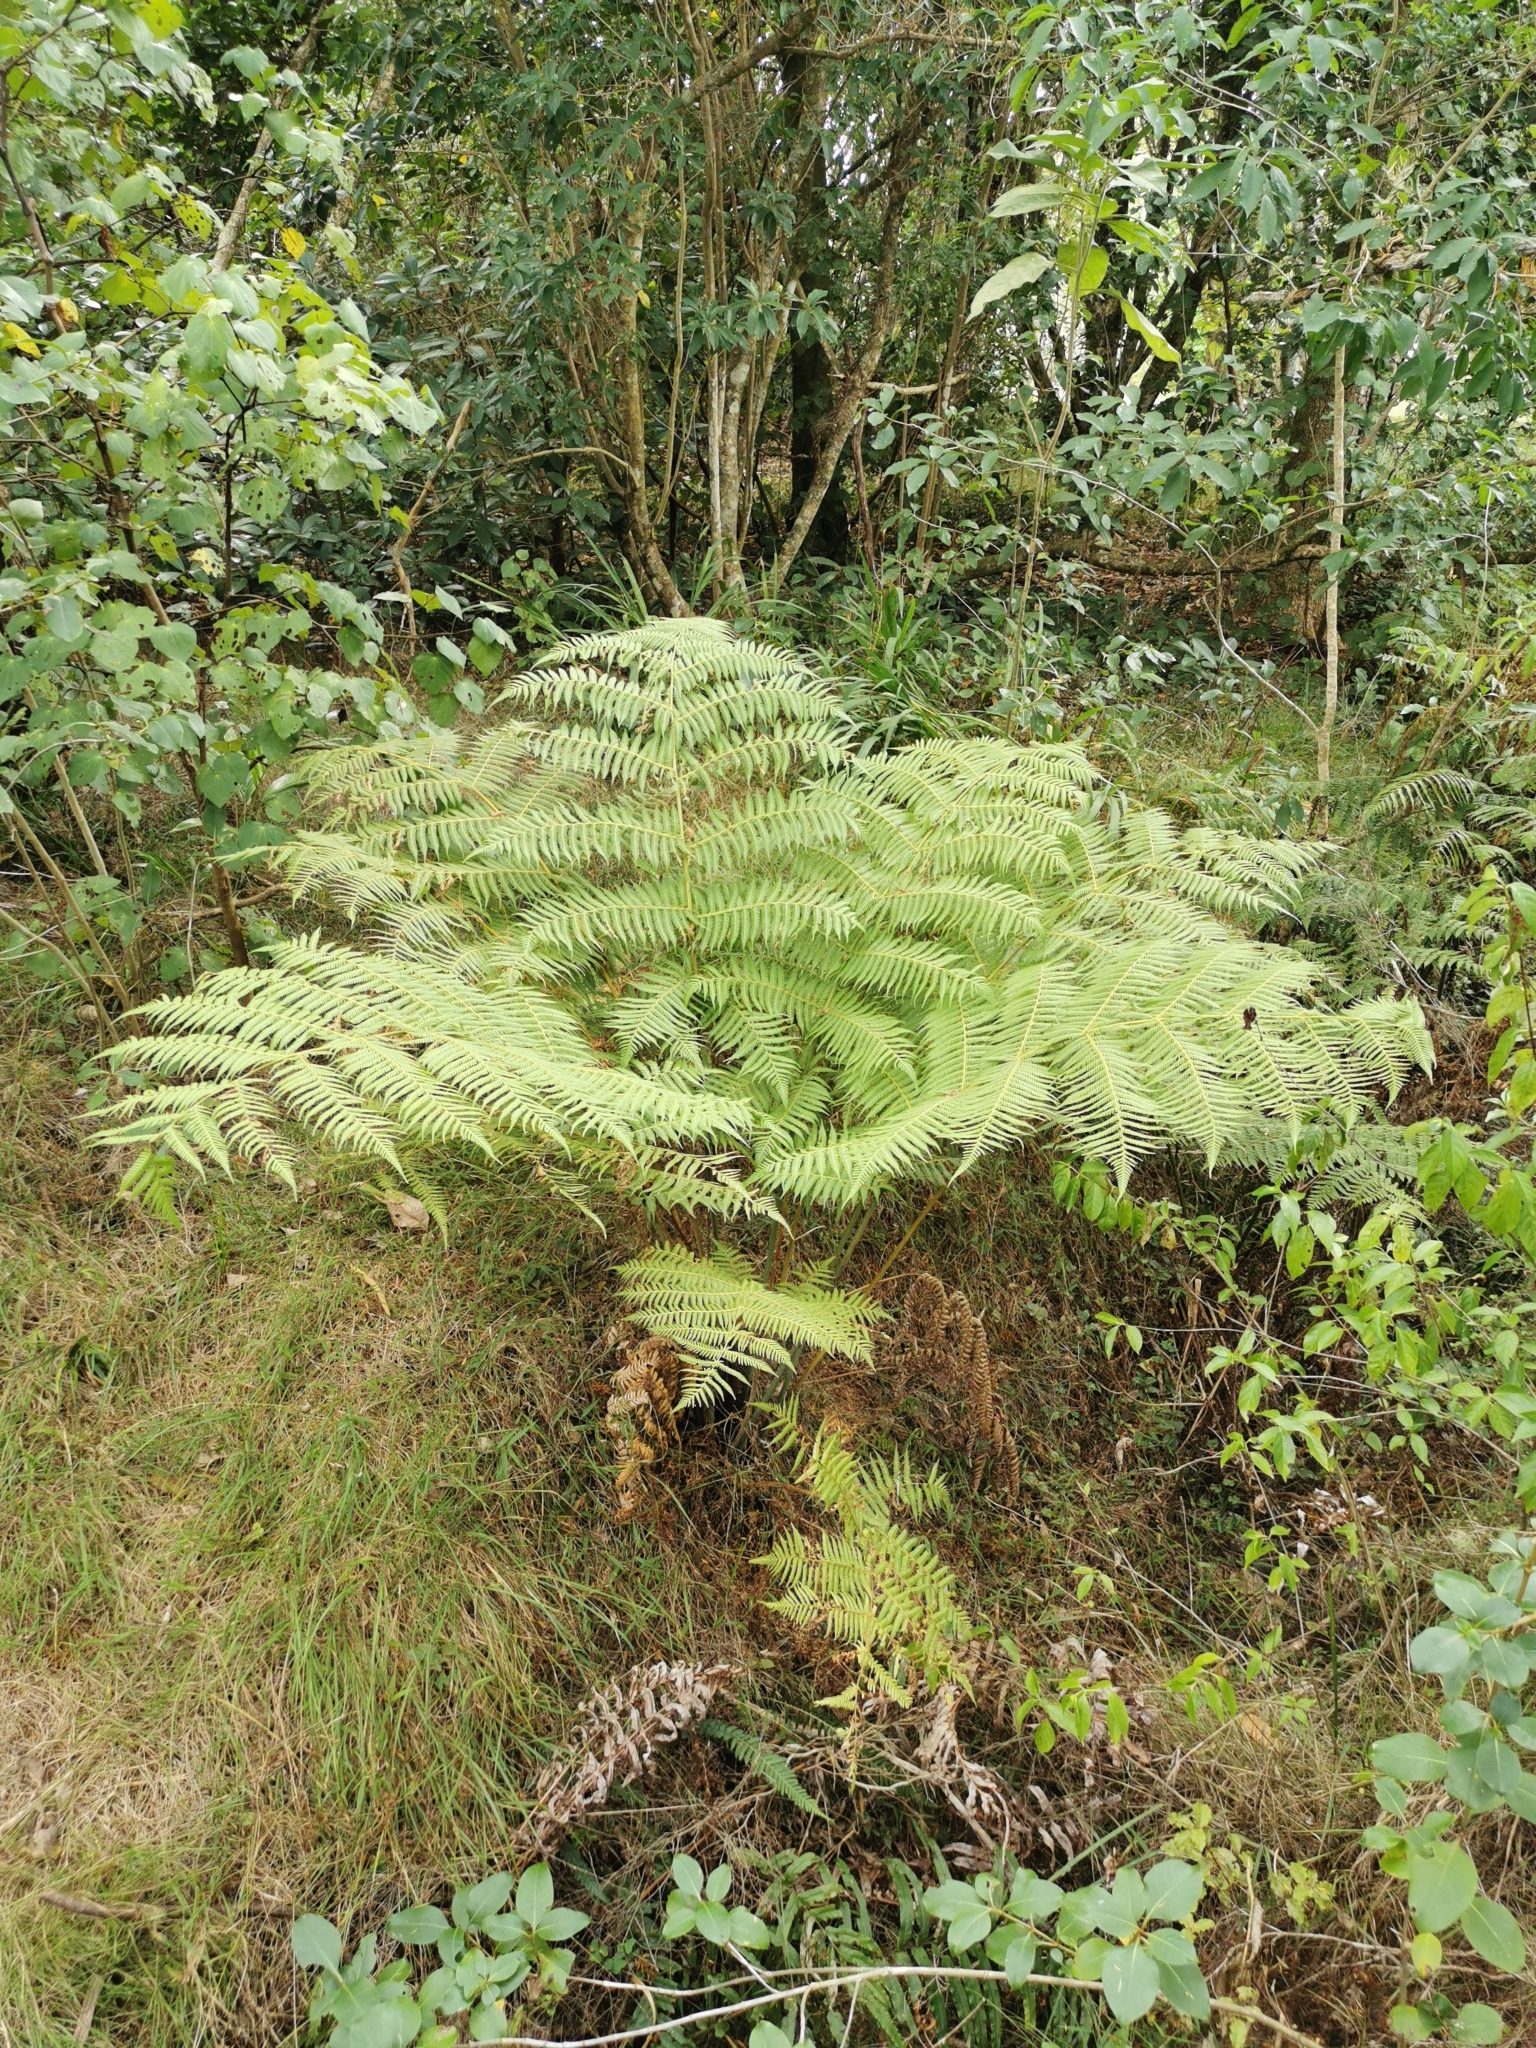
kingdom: Plantae
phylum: Tracheophyta
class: Polypodiopsida
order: Cyatheales
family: Cyatheaceae
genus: Alsophila
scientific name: Alsophila dealbata
